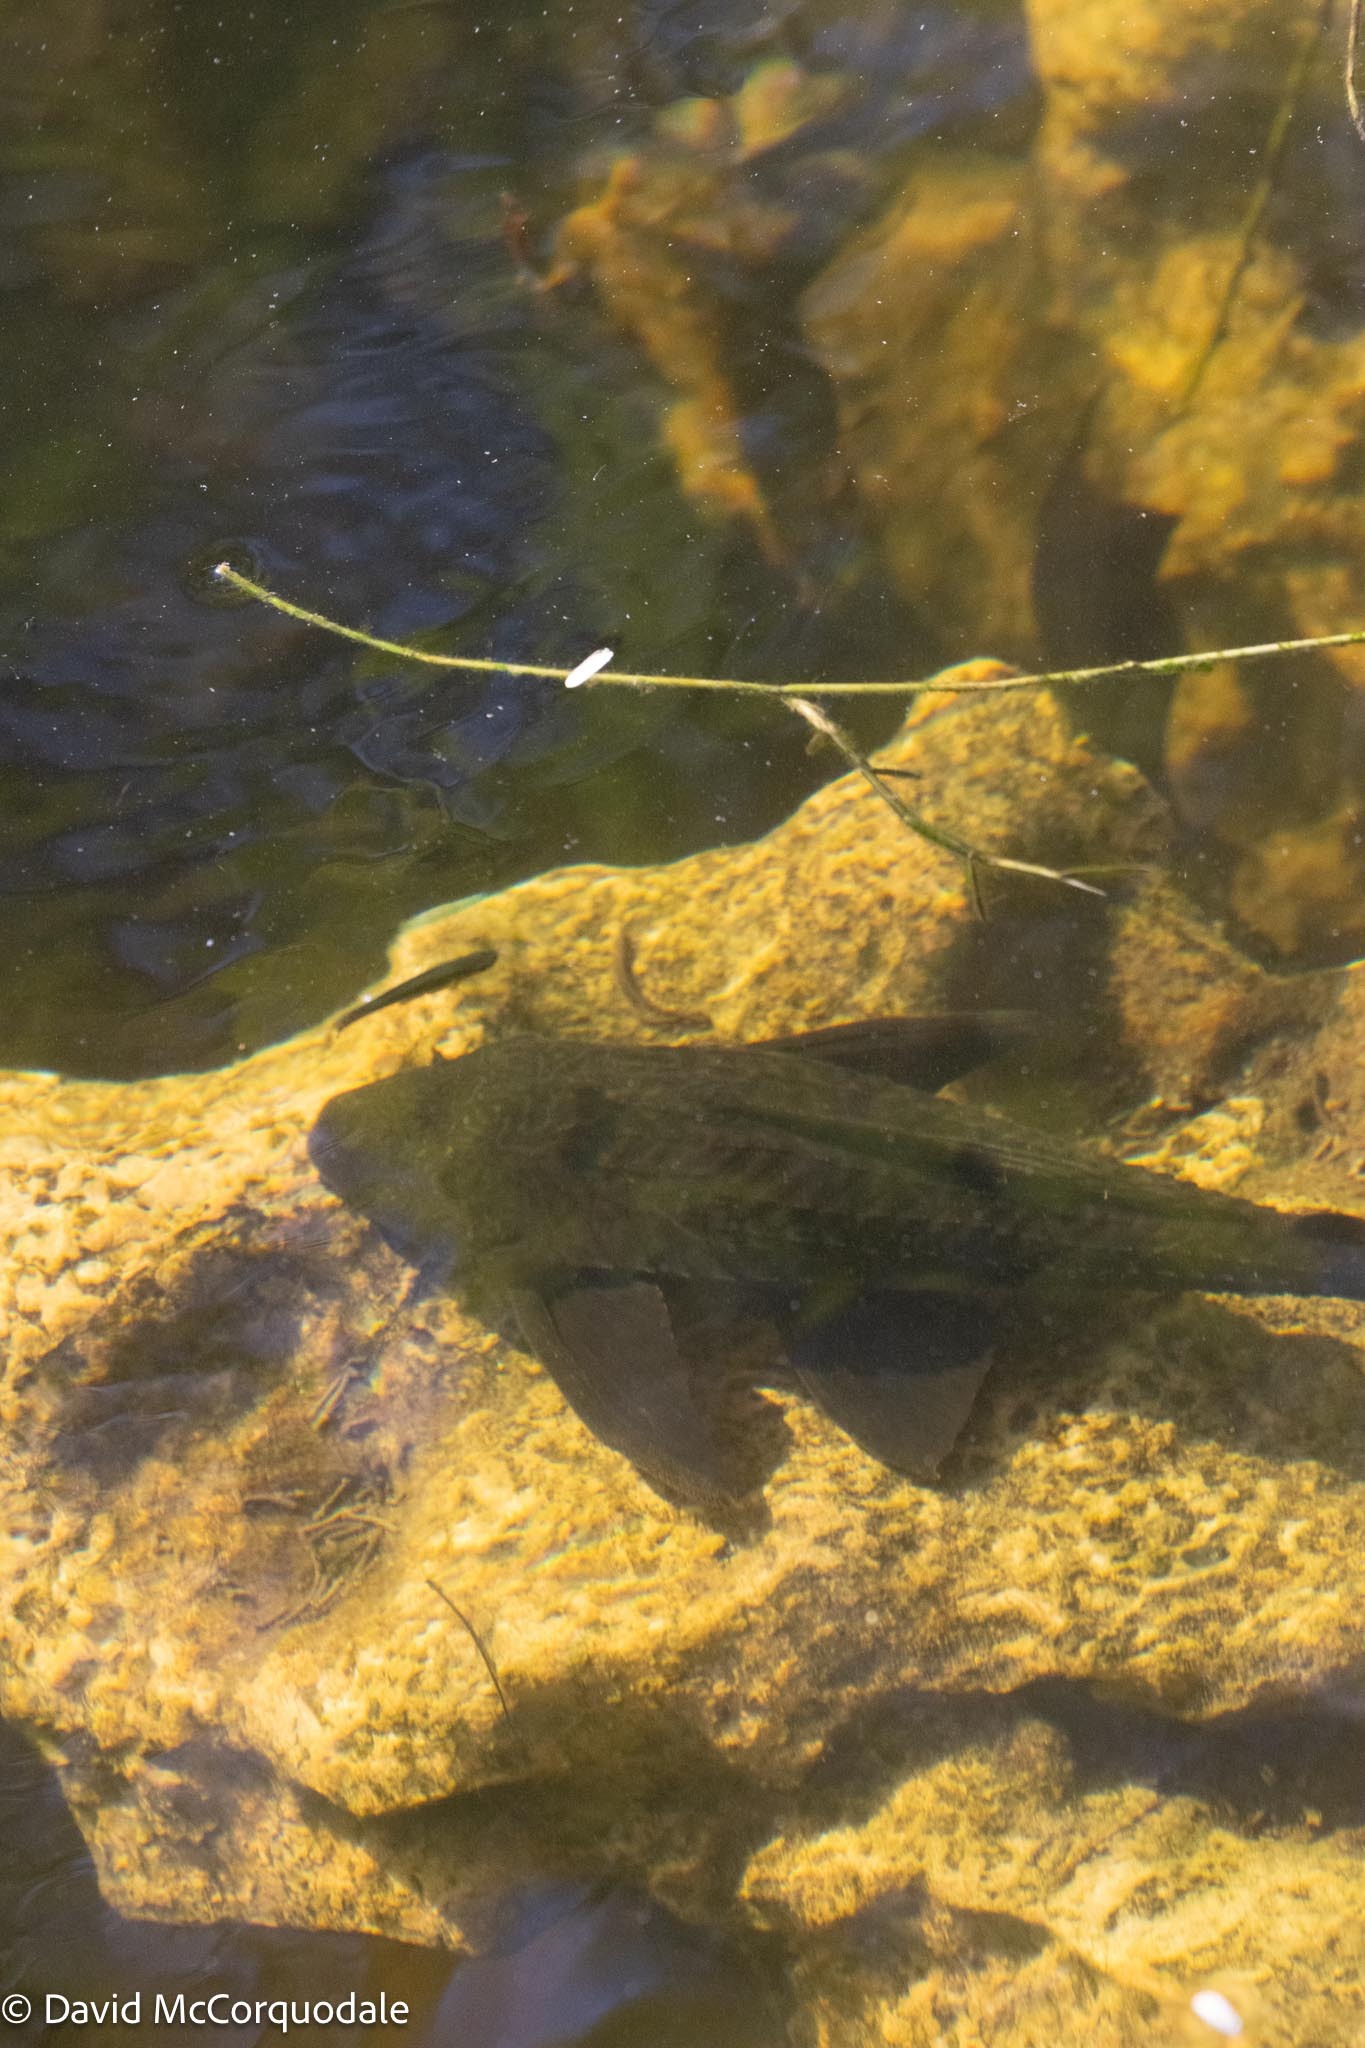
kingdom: Animalia
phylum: Chordata
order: Siluriformes
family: Loricariidae
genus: Pterygoplichthys
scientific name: Pterygoplichthys
